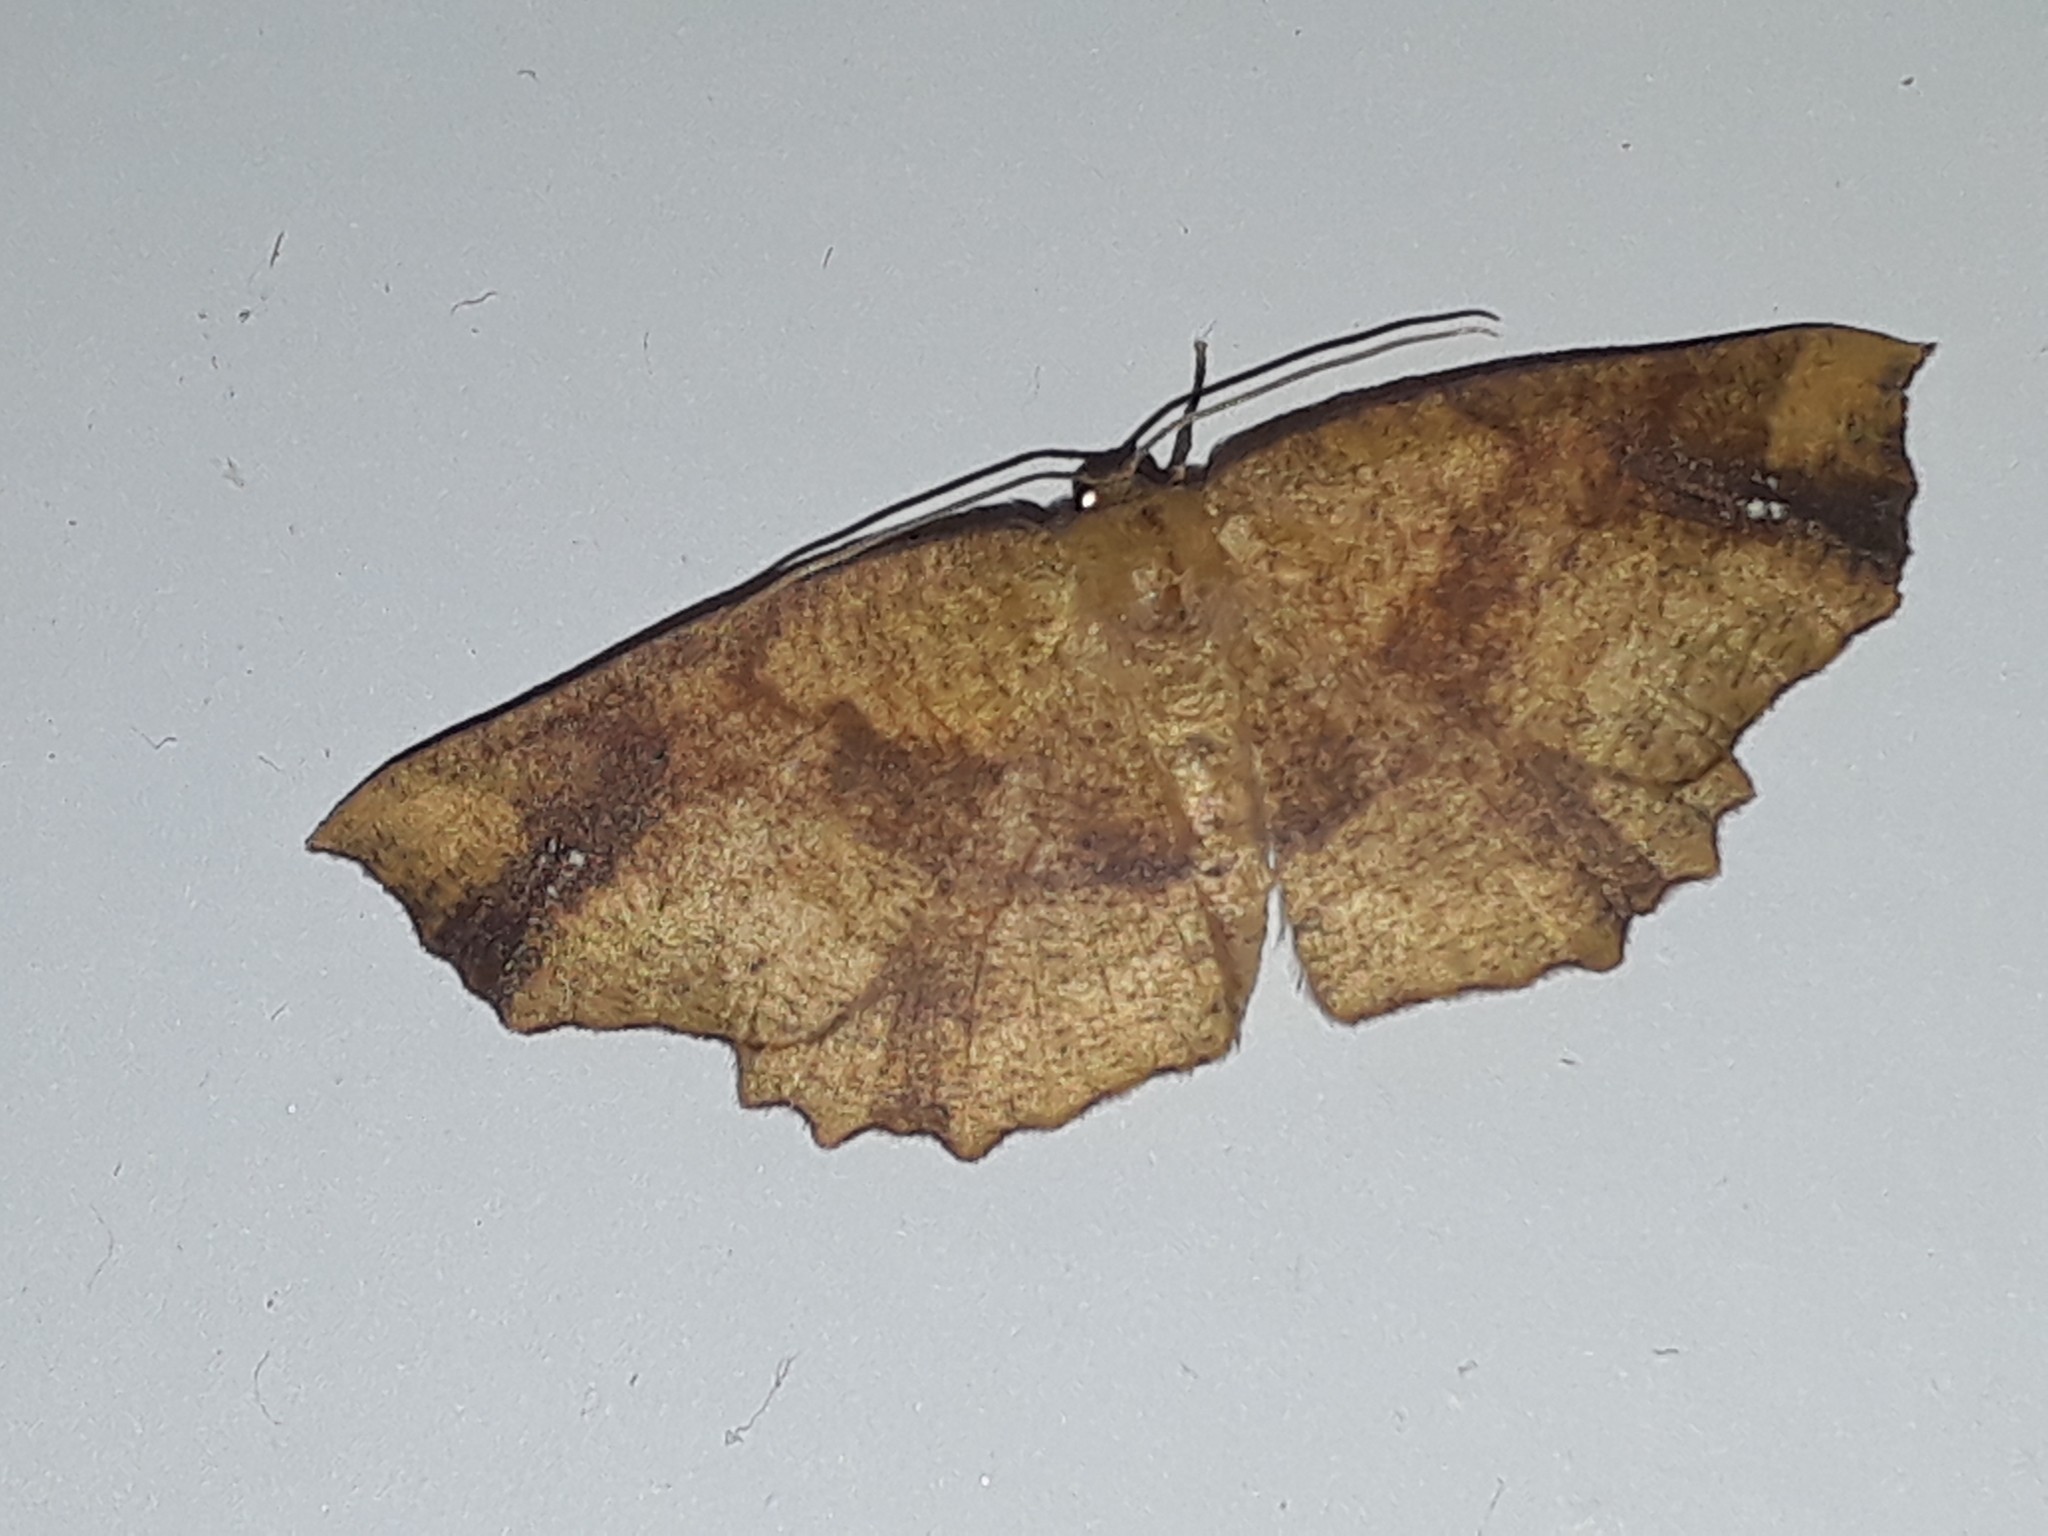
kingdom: Animalia
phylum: Arthropoda
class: Insecta
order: Lepidoptera
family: Geometridae
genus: Xyridacma
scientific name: Xyridacma ustaria
